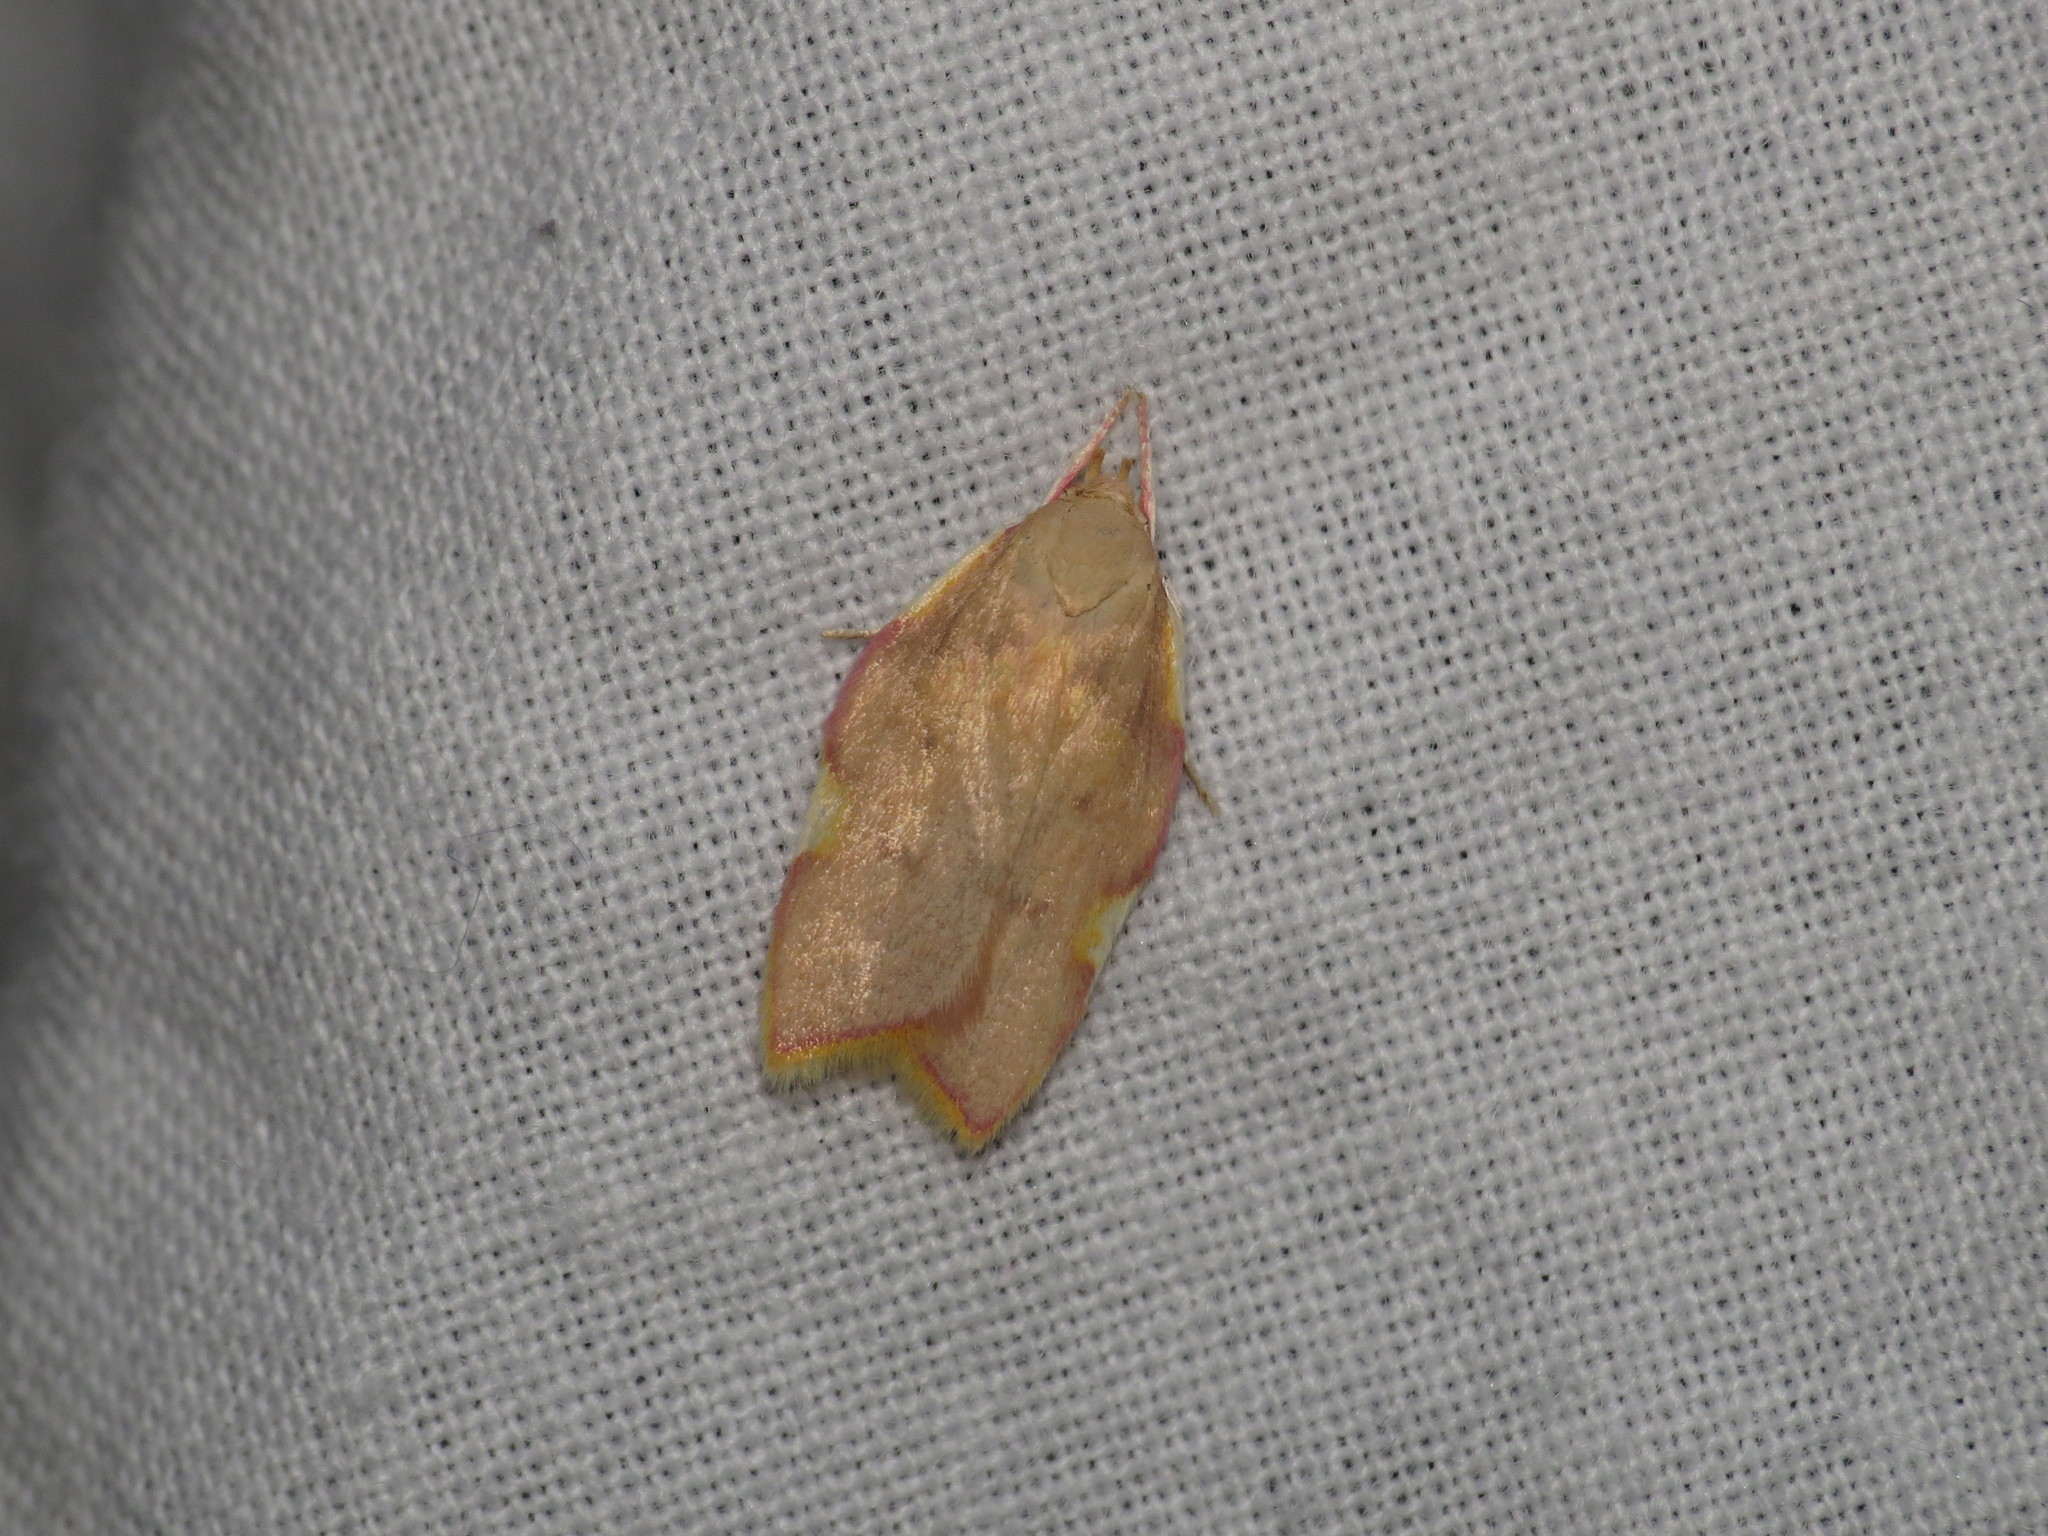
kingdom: Animalia
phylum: Arthropoda
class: Insecta
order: Lepidoptera
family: Peleopodidae
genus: Carcina
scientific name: Carcina quercana
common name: Moth
